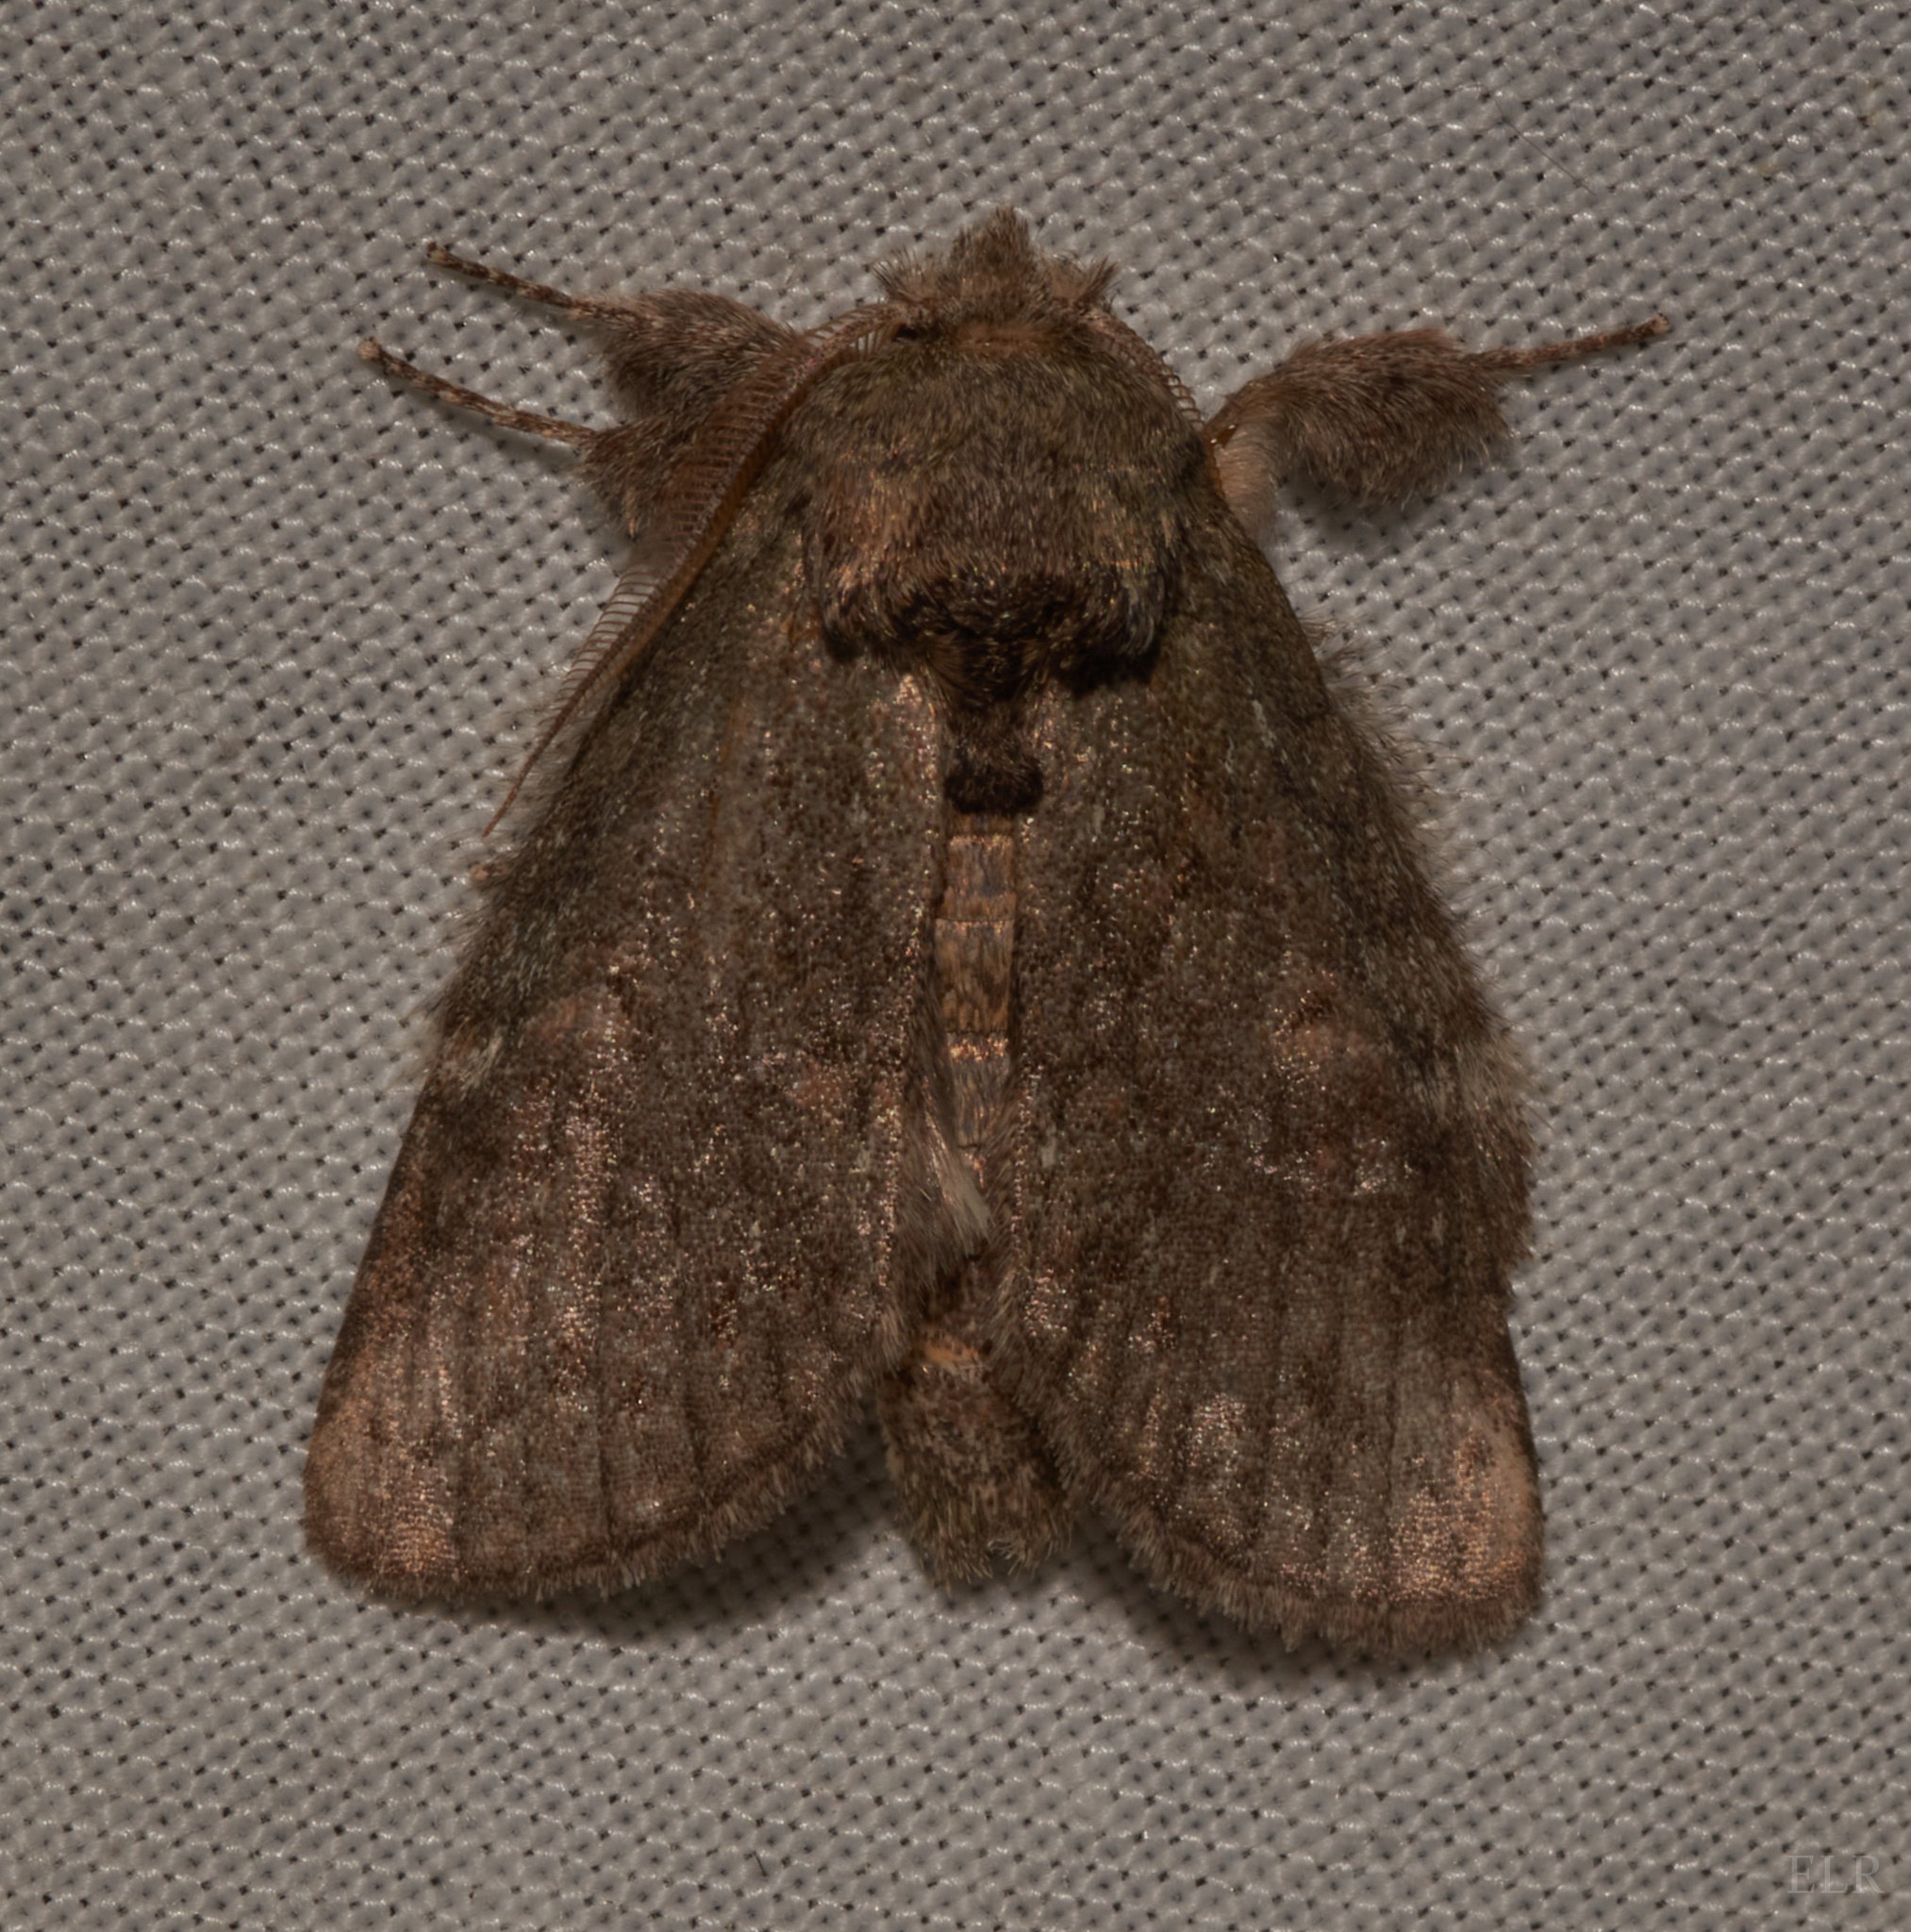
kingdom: Animalia
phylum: Arthropoda
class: Insecta
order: Lepidoptera
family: Notodontidae
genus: Disphragis
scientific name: Disphragis Cecrita guttivitta
